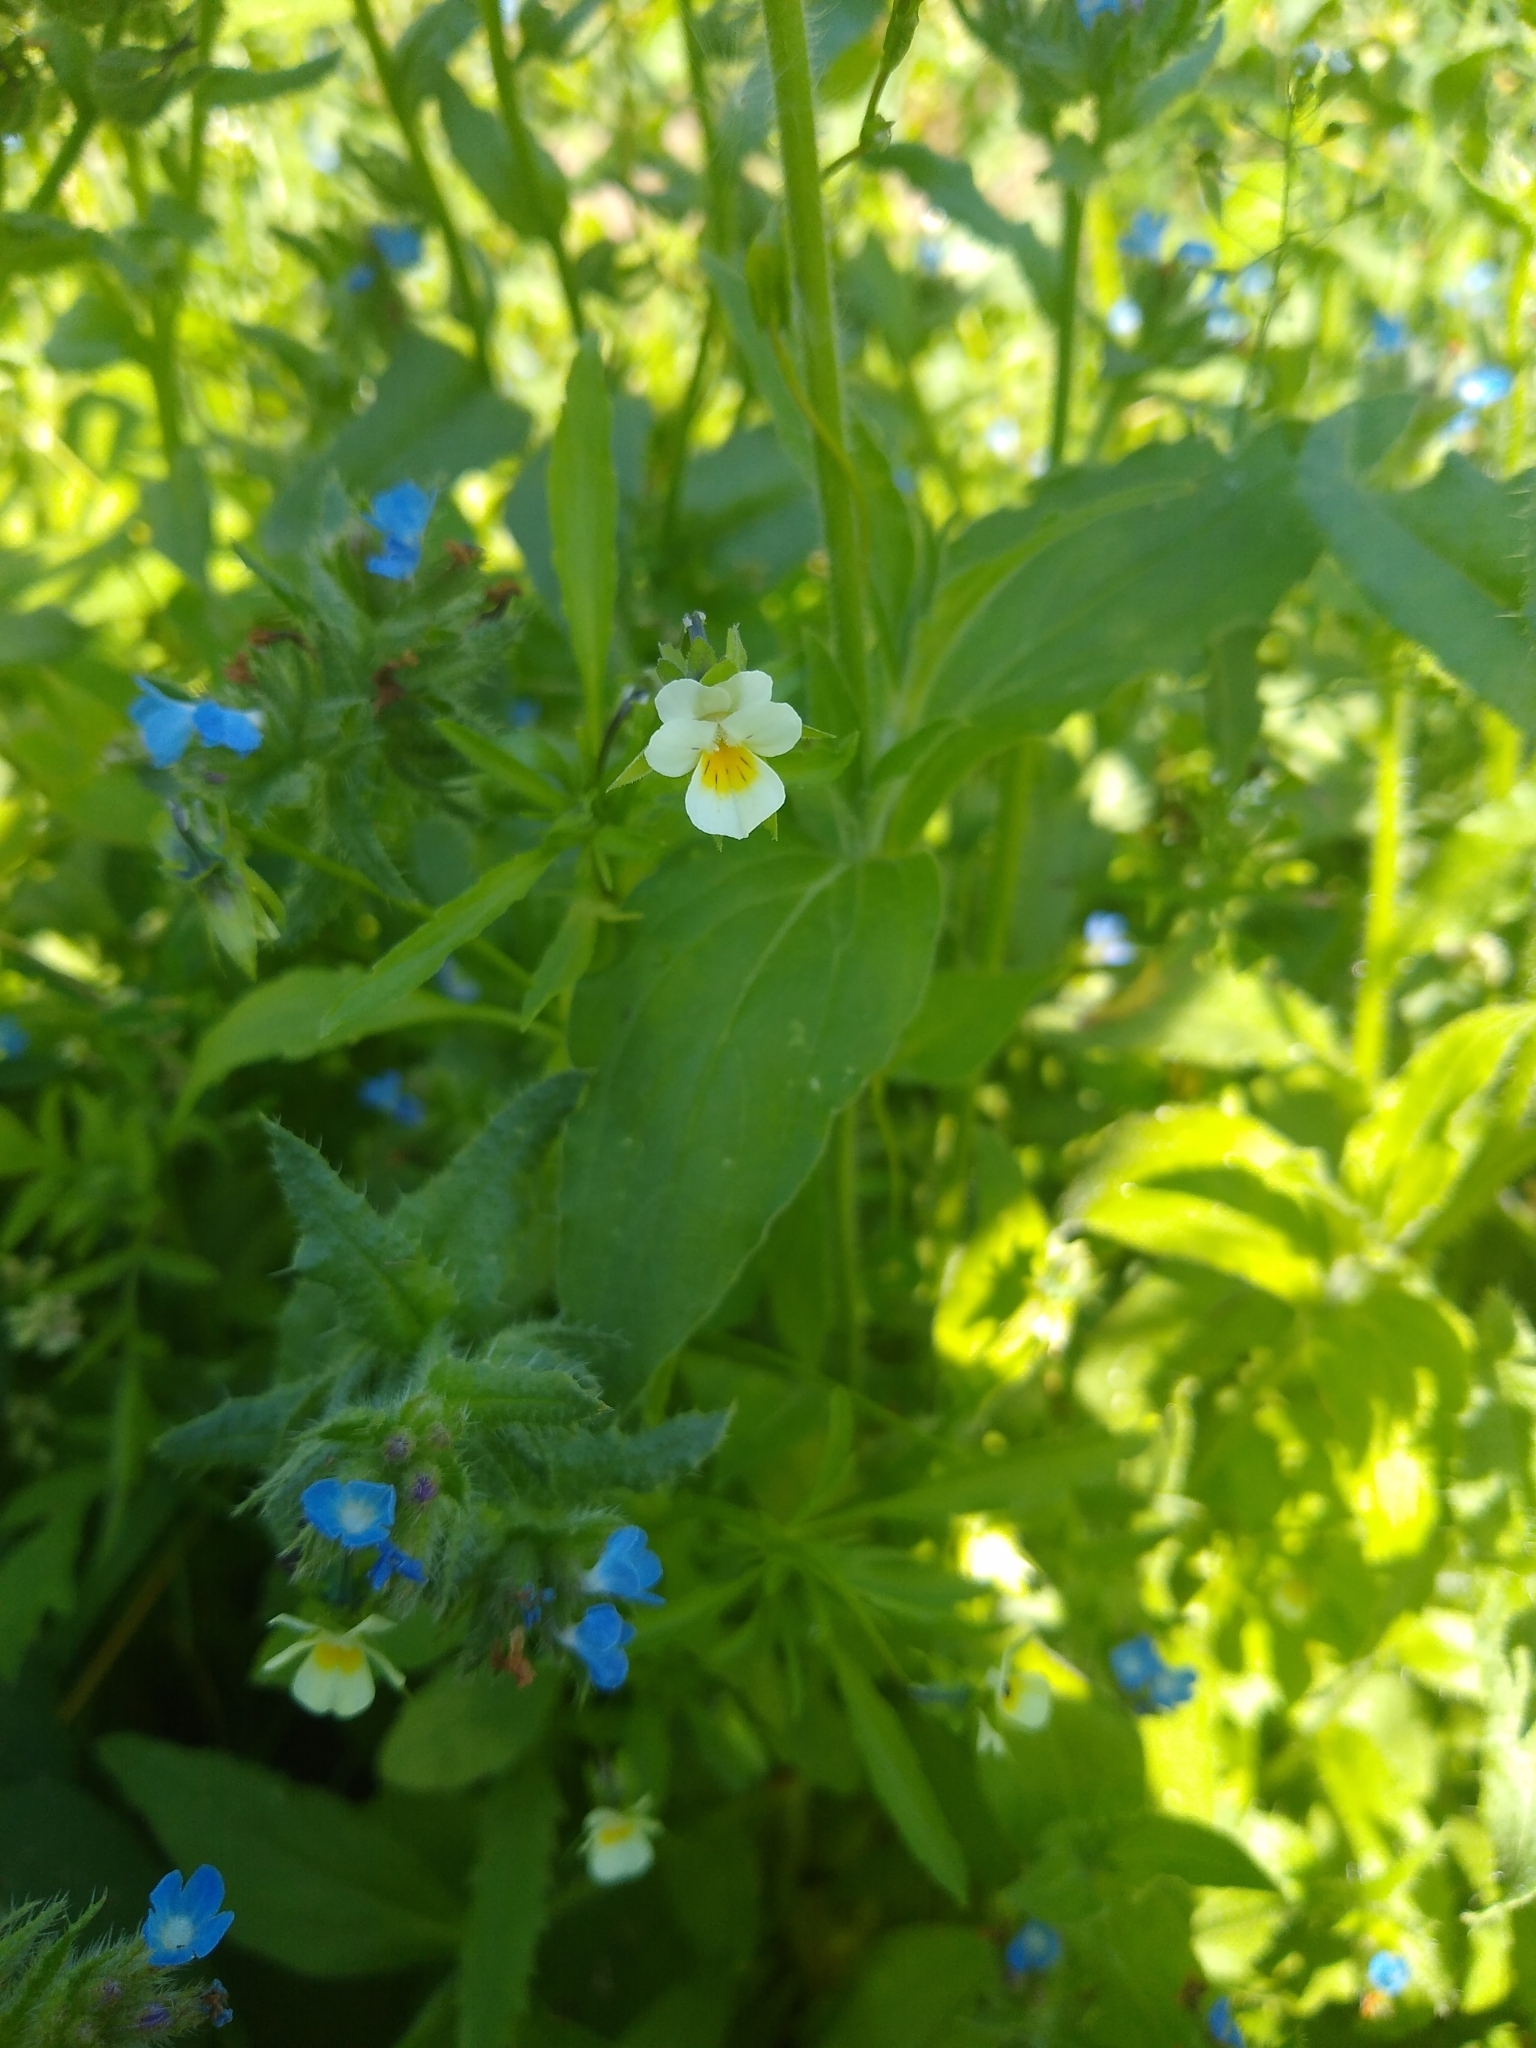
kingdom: Plantae
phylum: Tracheophyta
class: Magnoliopsida
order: Malpighiales
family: Violaceae
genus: Viola
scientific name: Viola arvensis
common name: Field pansy
